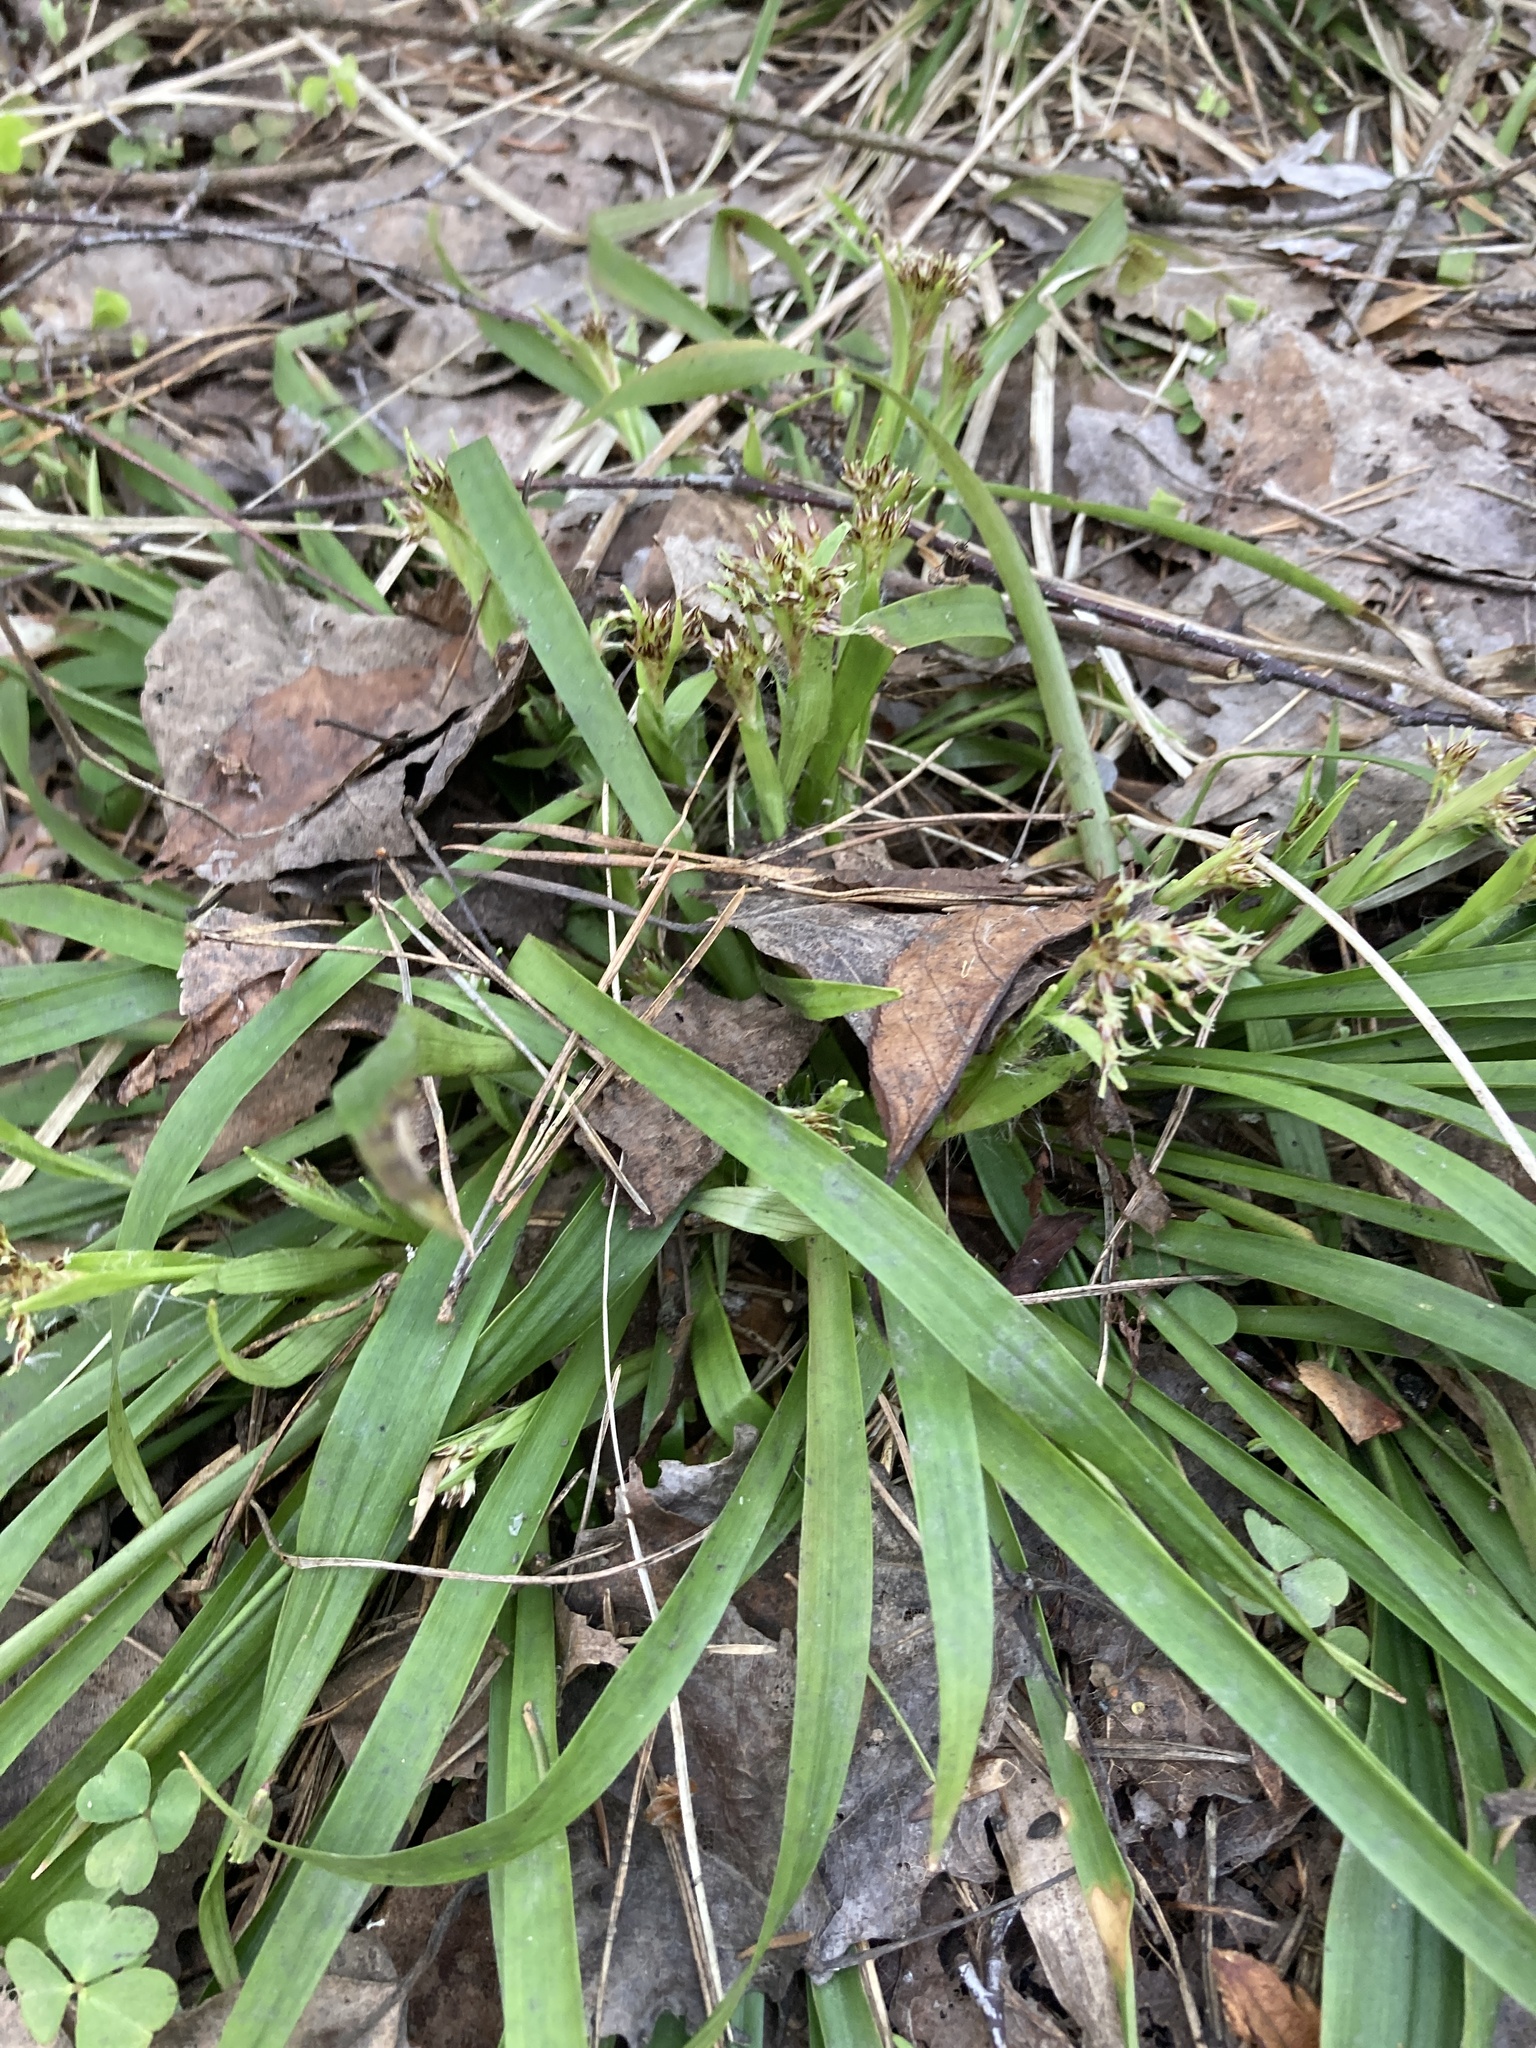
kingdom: Plantae
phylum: Tracheophyta
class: Liliopsida
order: Poales
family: Juncaceae
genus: Luzula
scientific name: Luzula pilosa
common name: Hairy wood-rush
